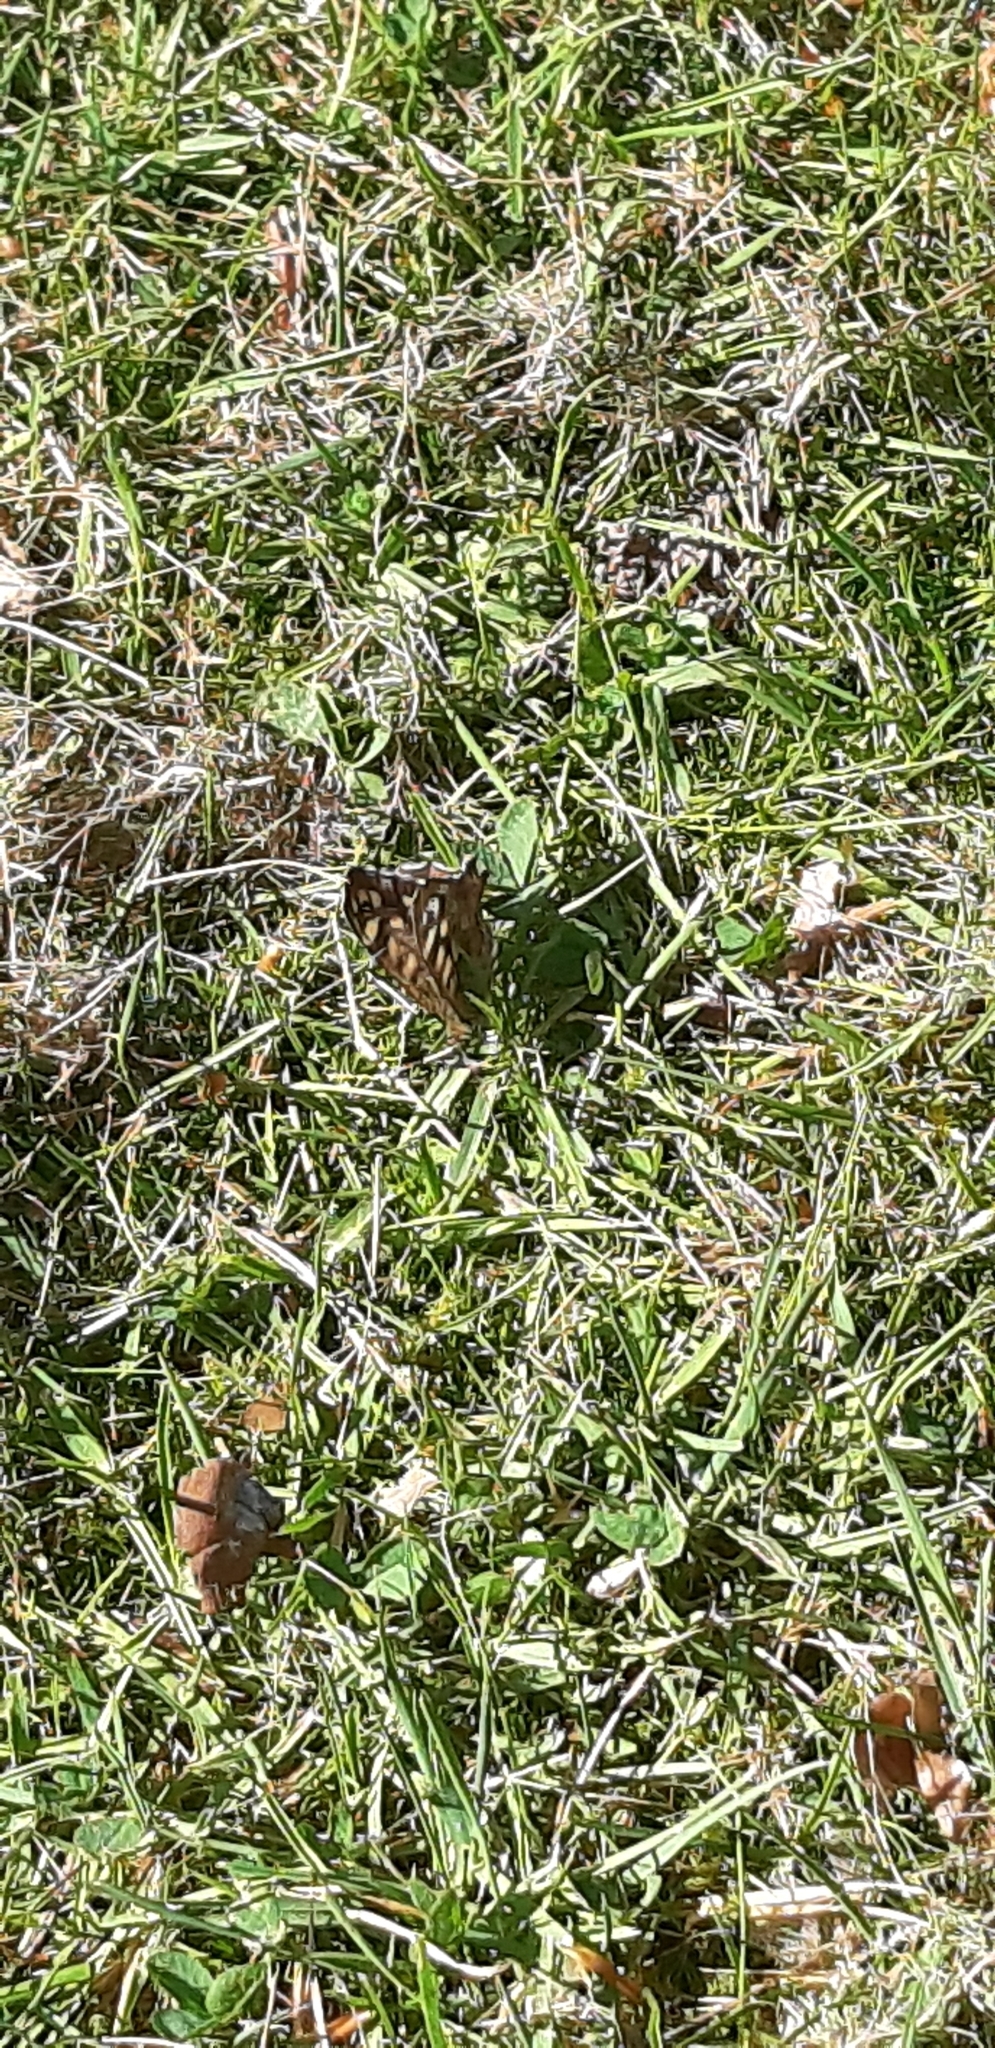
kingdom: Animalia
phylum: Arthropoda
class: Insecta
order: Lepidoptera
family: Nymphalidae
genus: Pararge
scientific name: Pararge aegeria
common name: Speckled wood
